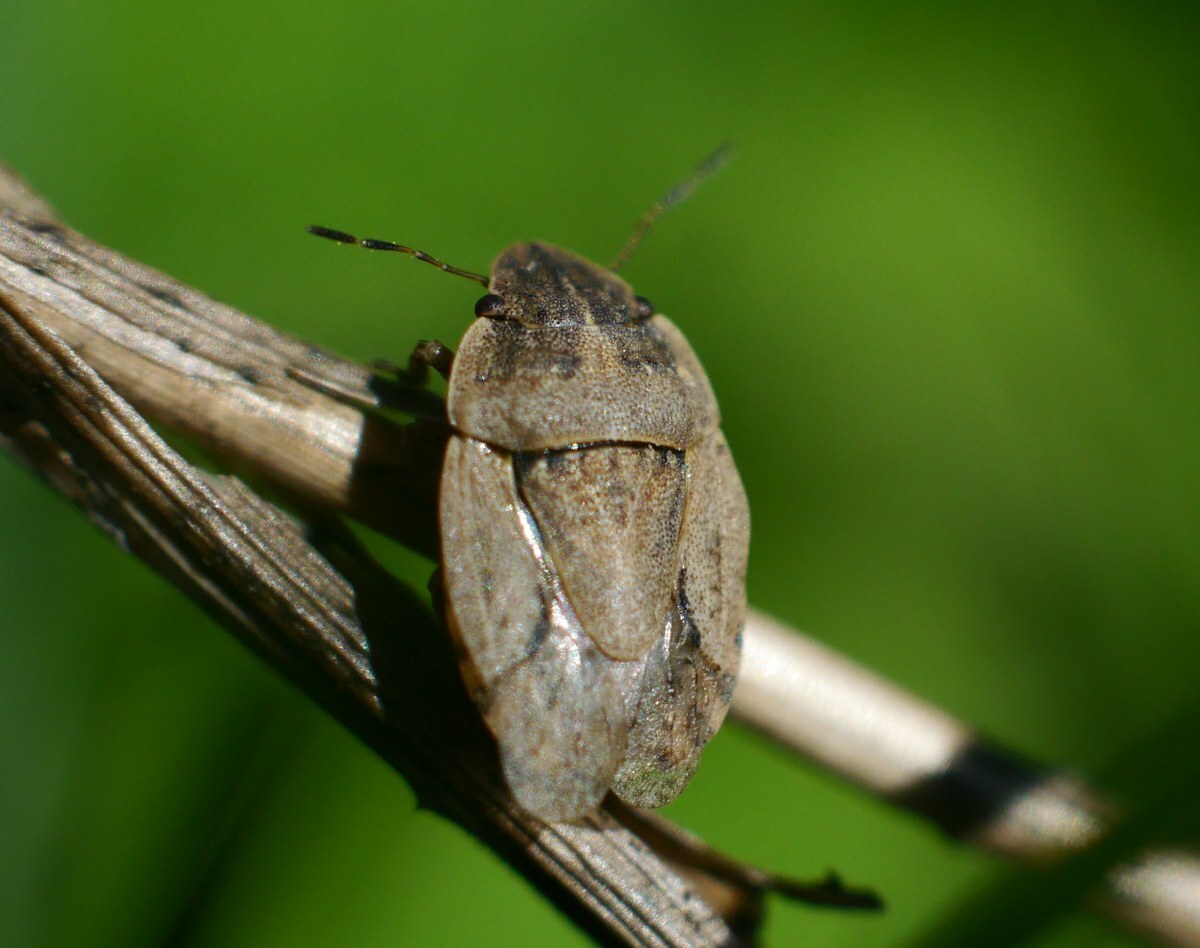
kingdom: Animalia
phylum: Arthropoda
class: Insecta
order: Hemiptera
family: Pentatomidae
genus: Sciocoris
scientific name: Sciocoris cursitans
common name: Sandrunner
